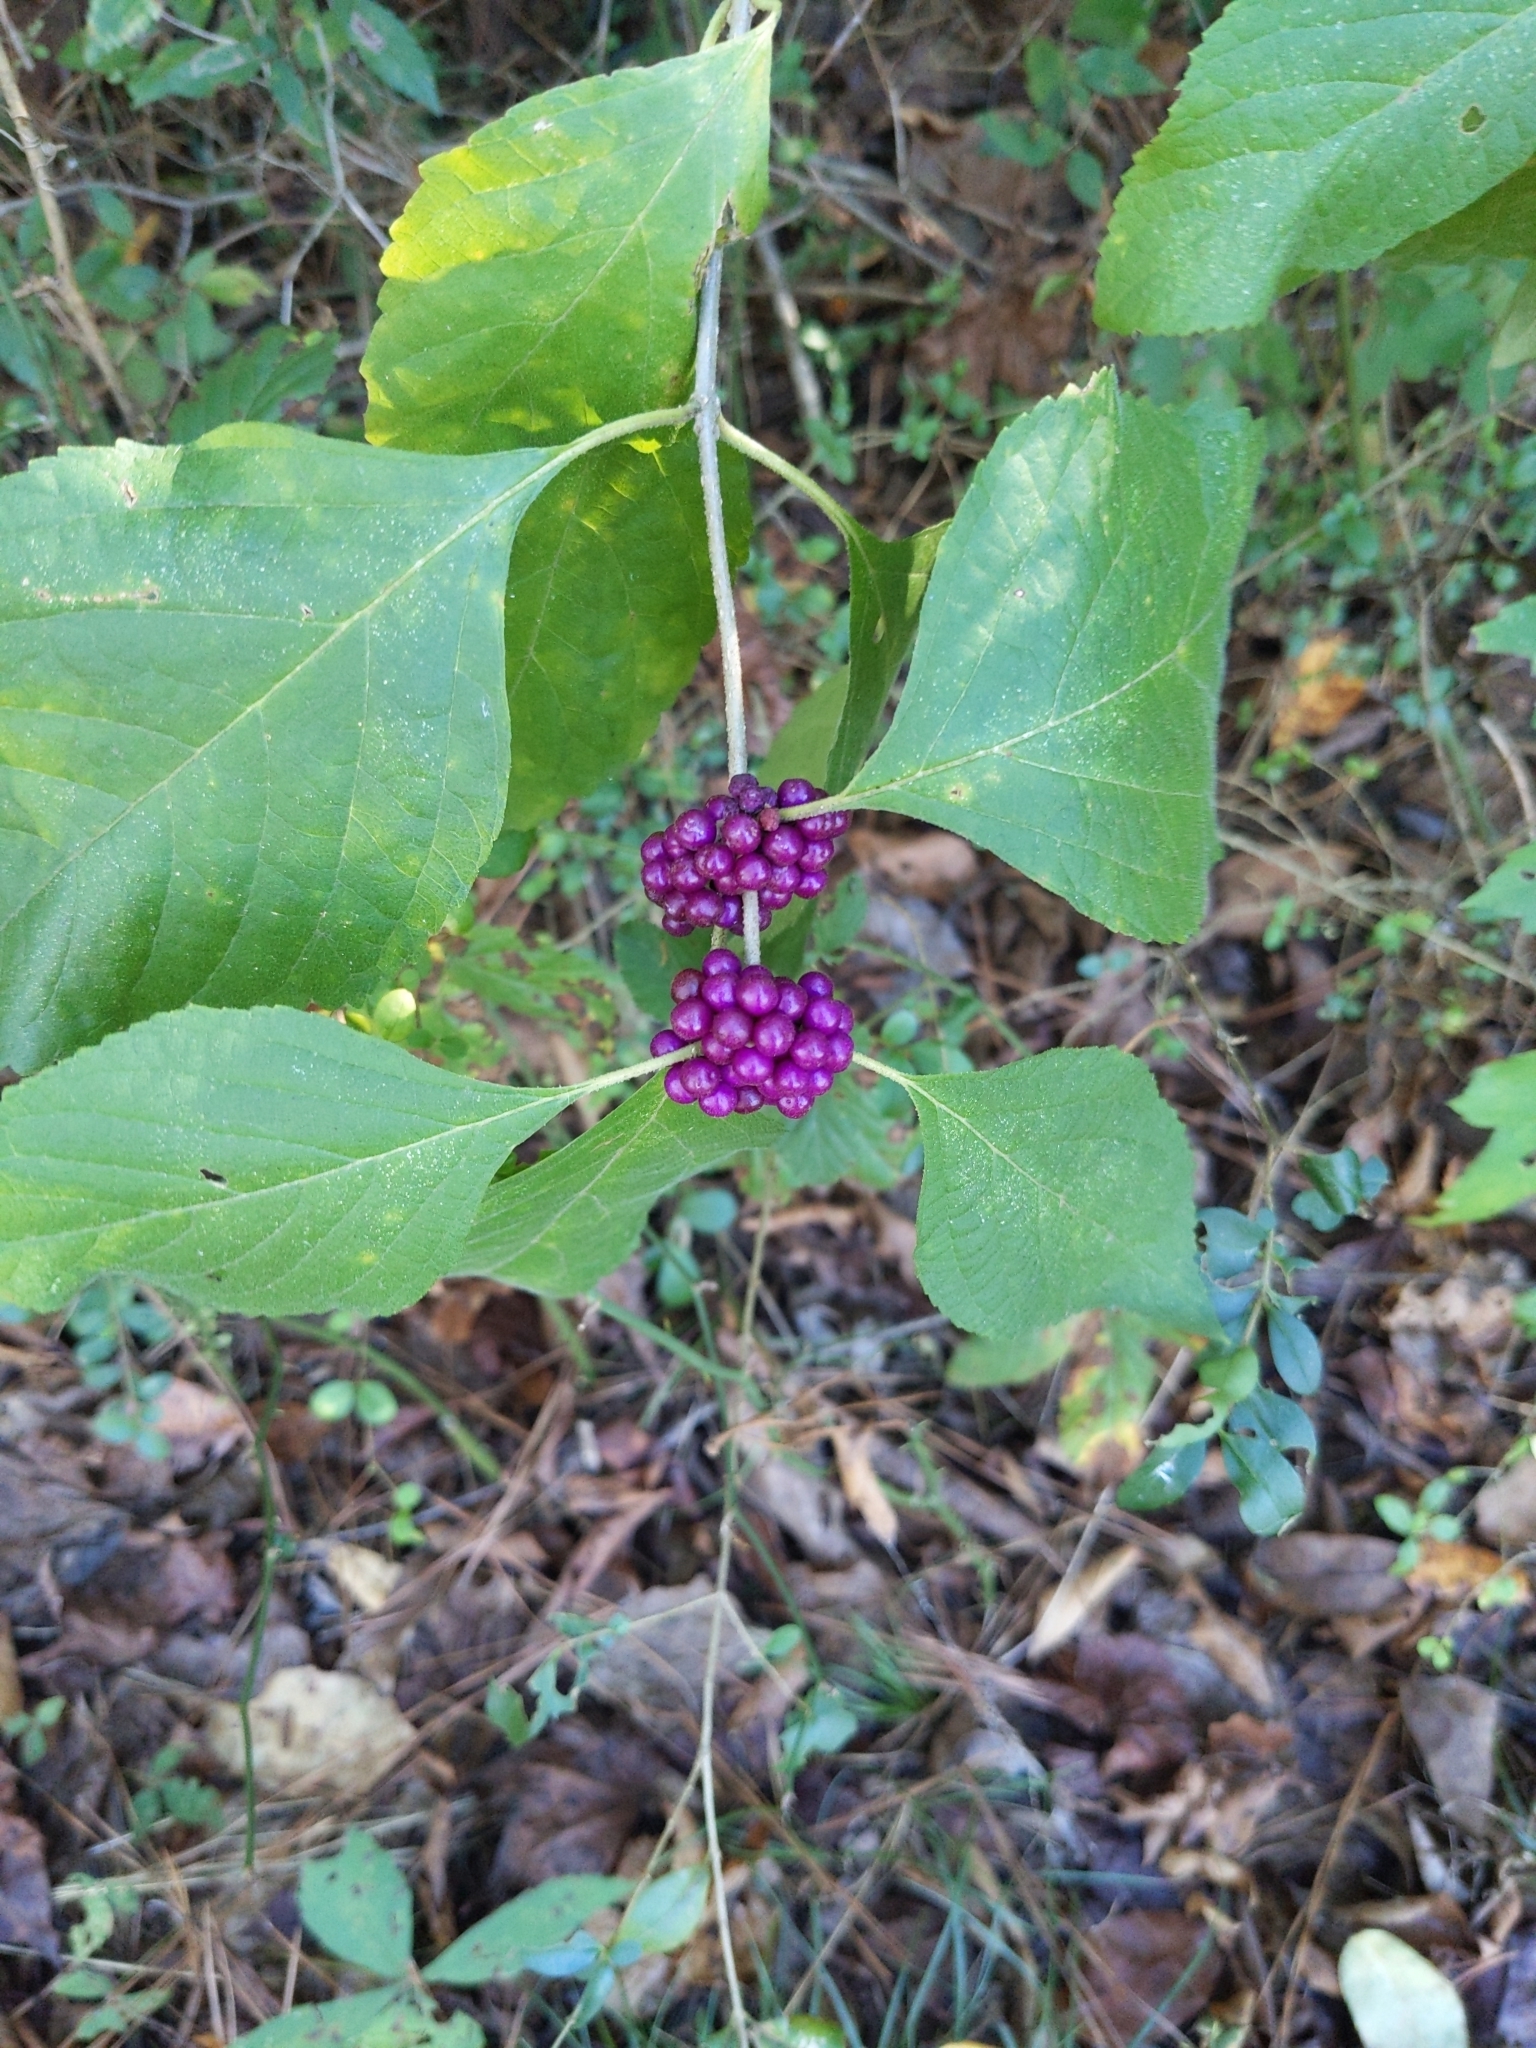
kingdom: Plantae
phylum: Tracheophyta
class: Magnoliopsida
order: Lamiales
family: Lamiaceae
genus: Callicarpa
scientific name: Callicarpa americana
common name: American beautyberry
